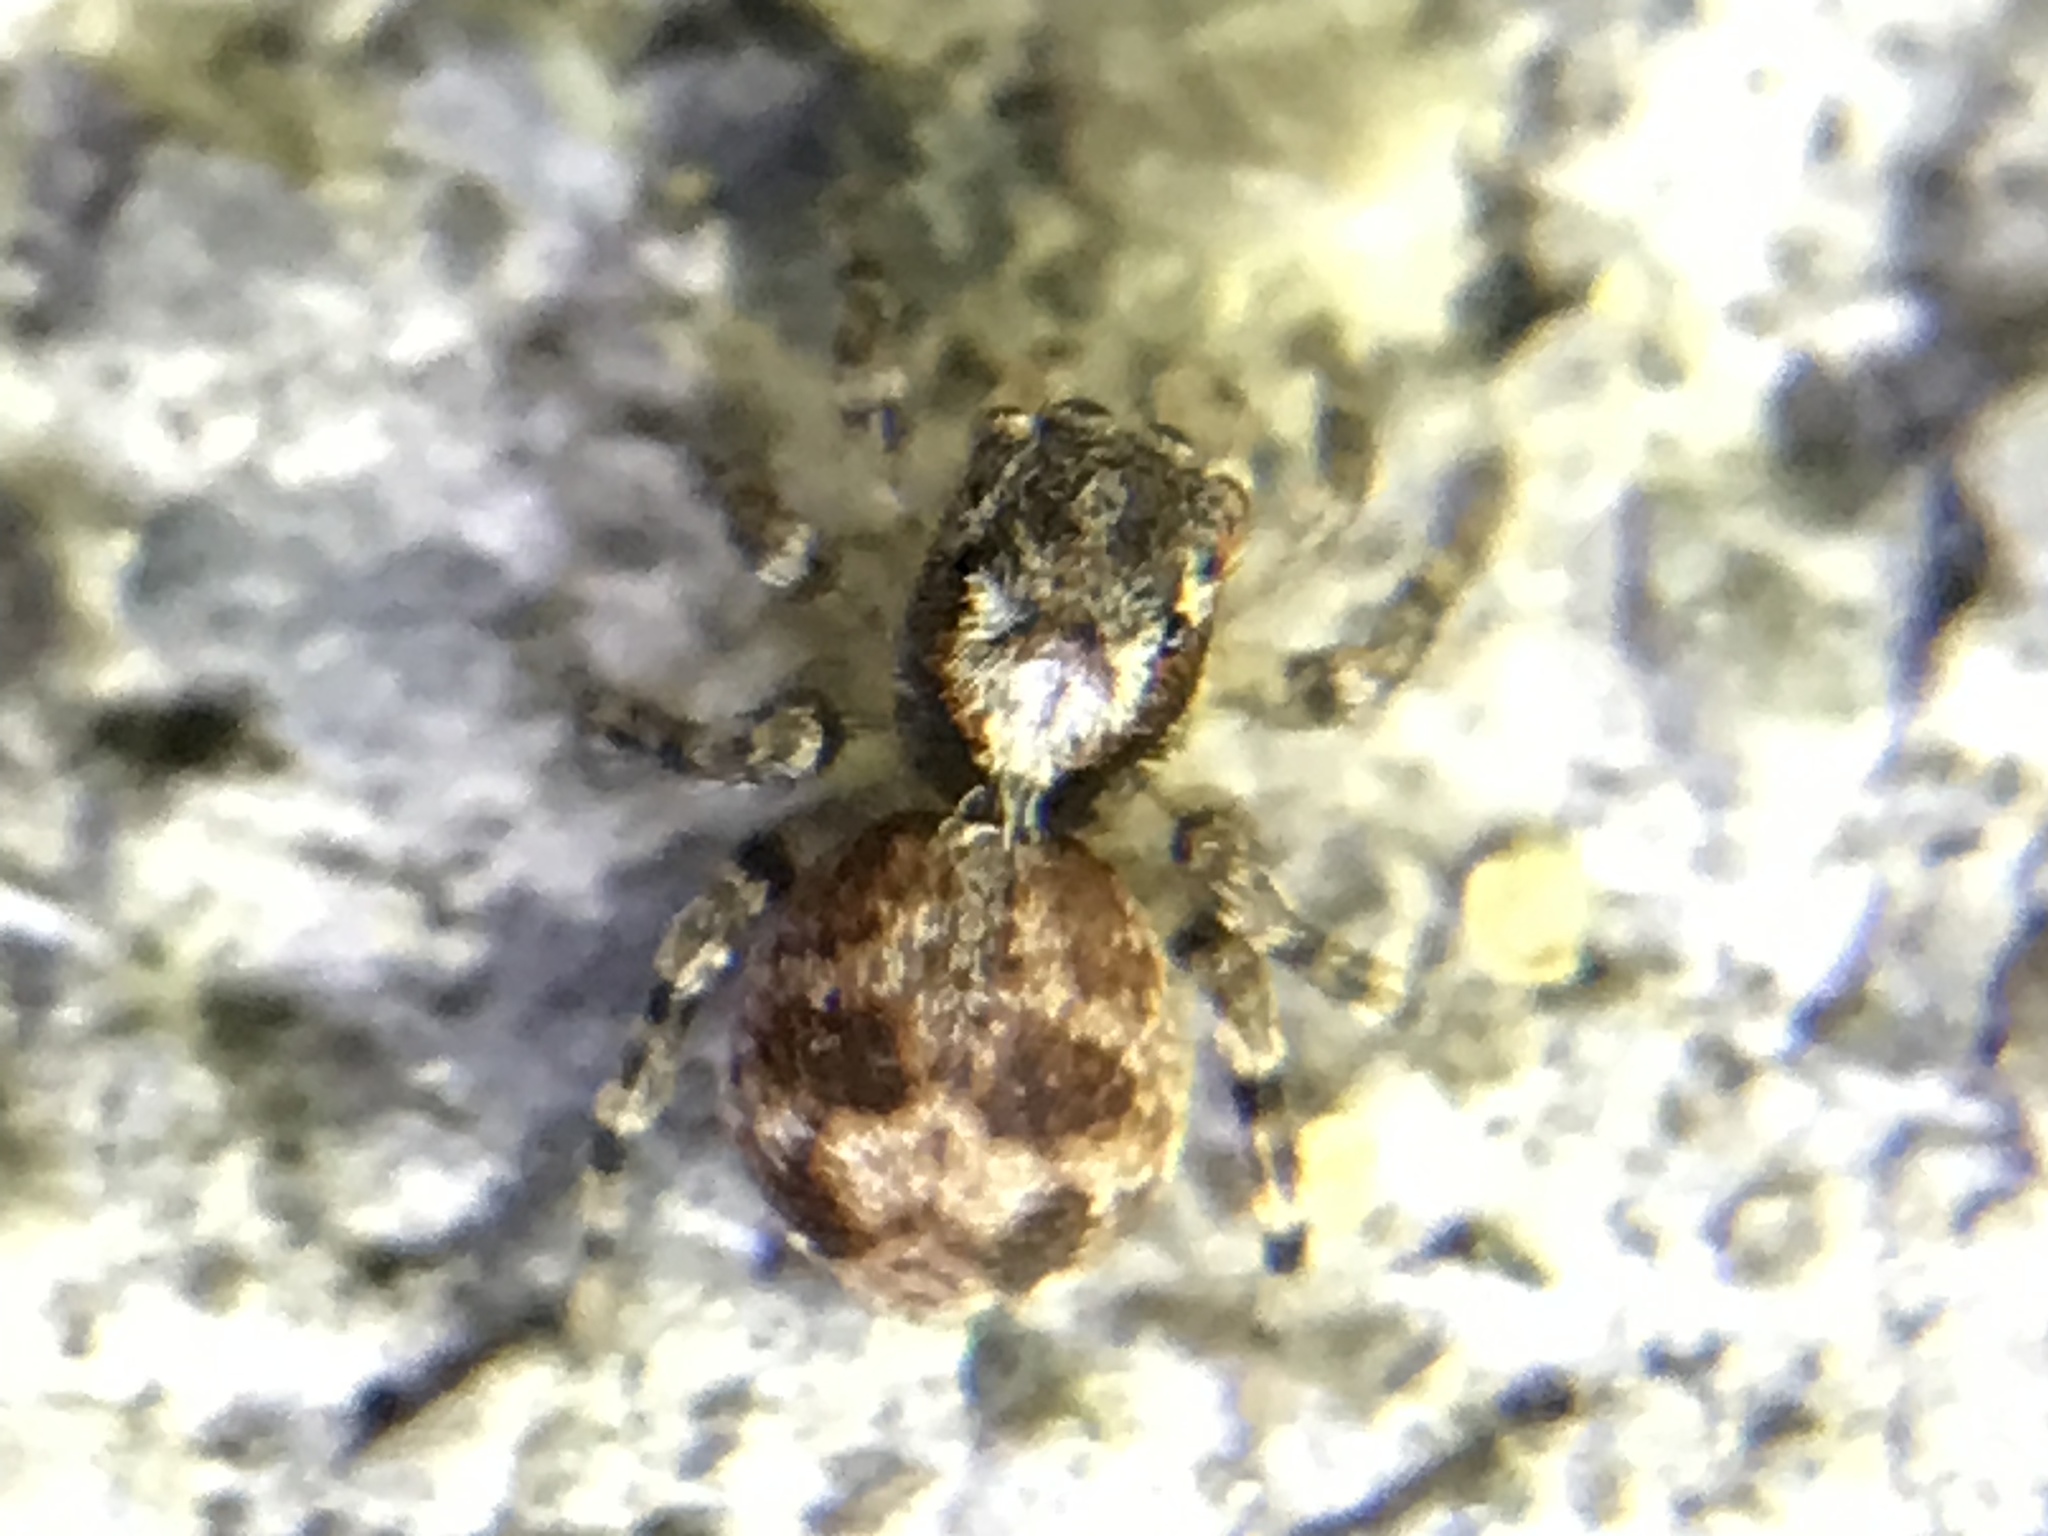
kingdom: Animalia
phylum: Arthropoda
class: Arachnida
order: Araneae
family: Salticidae
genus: Naphrys
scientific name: Naphrys pulex
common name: Flea jumping spider
